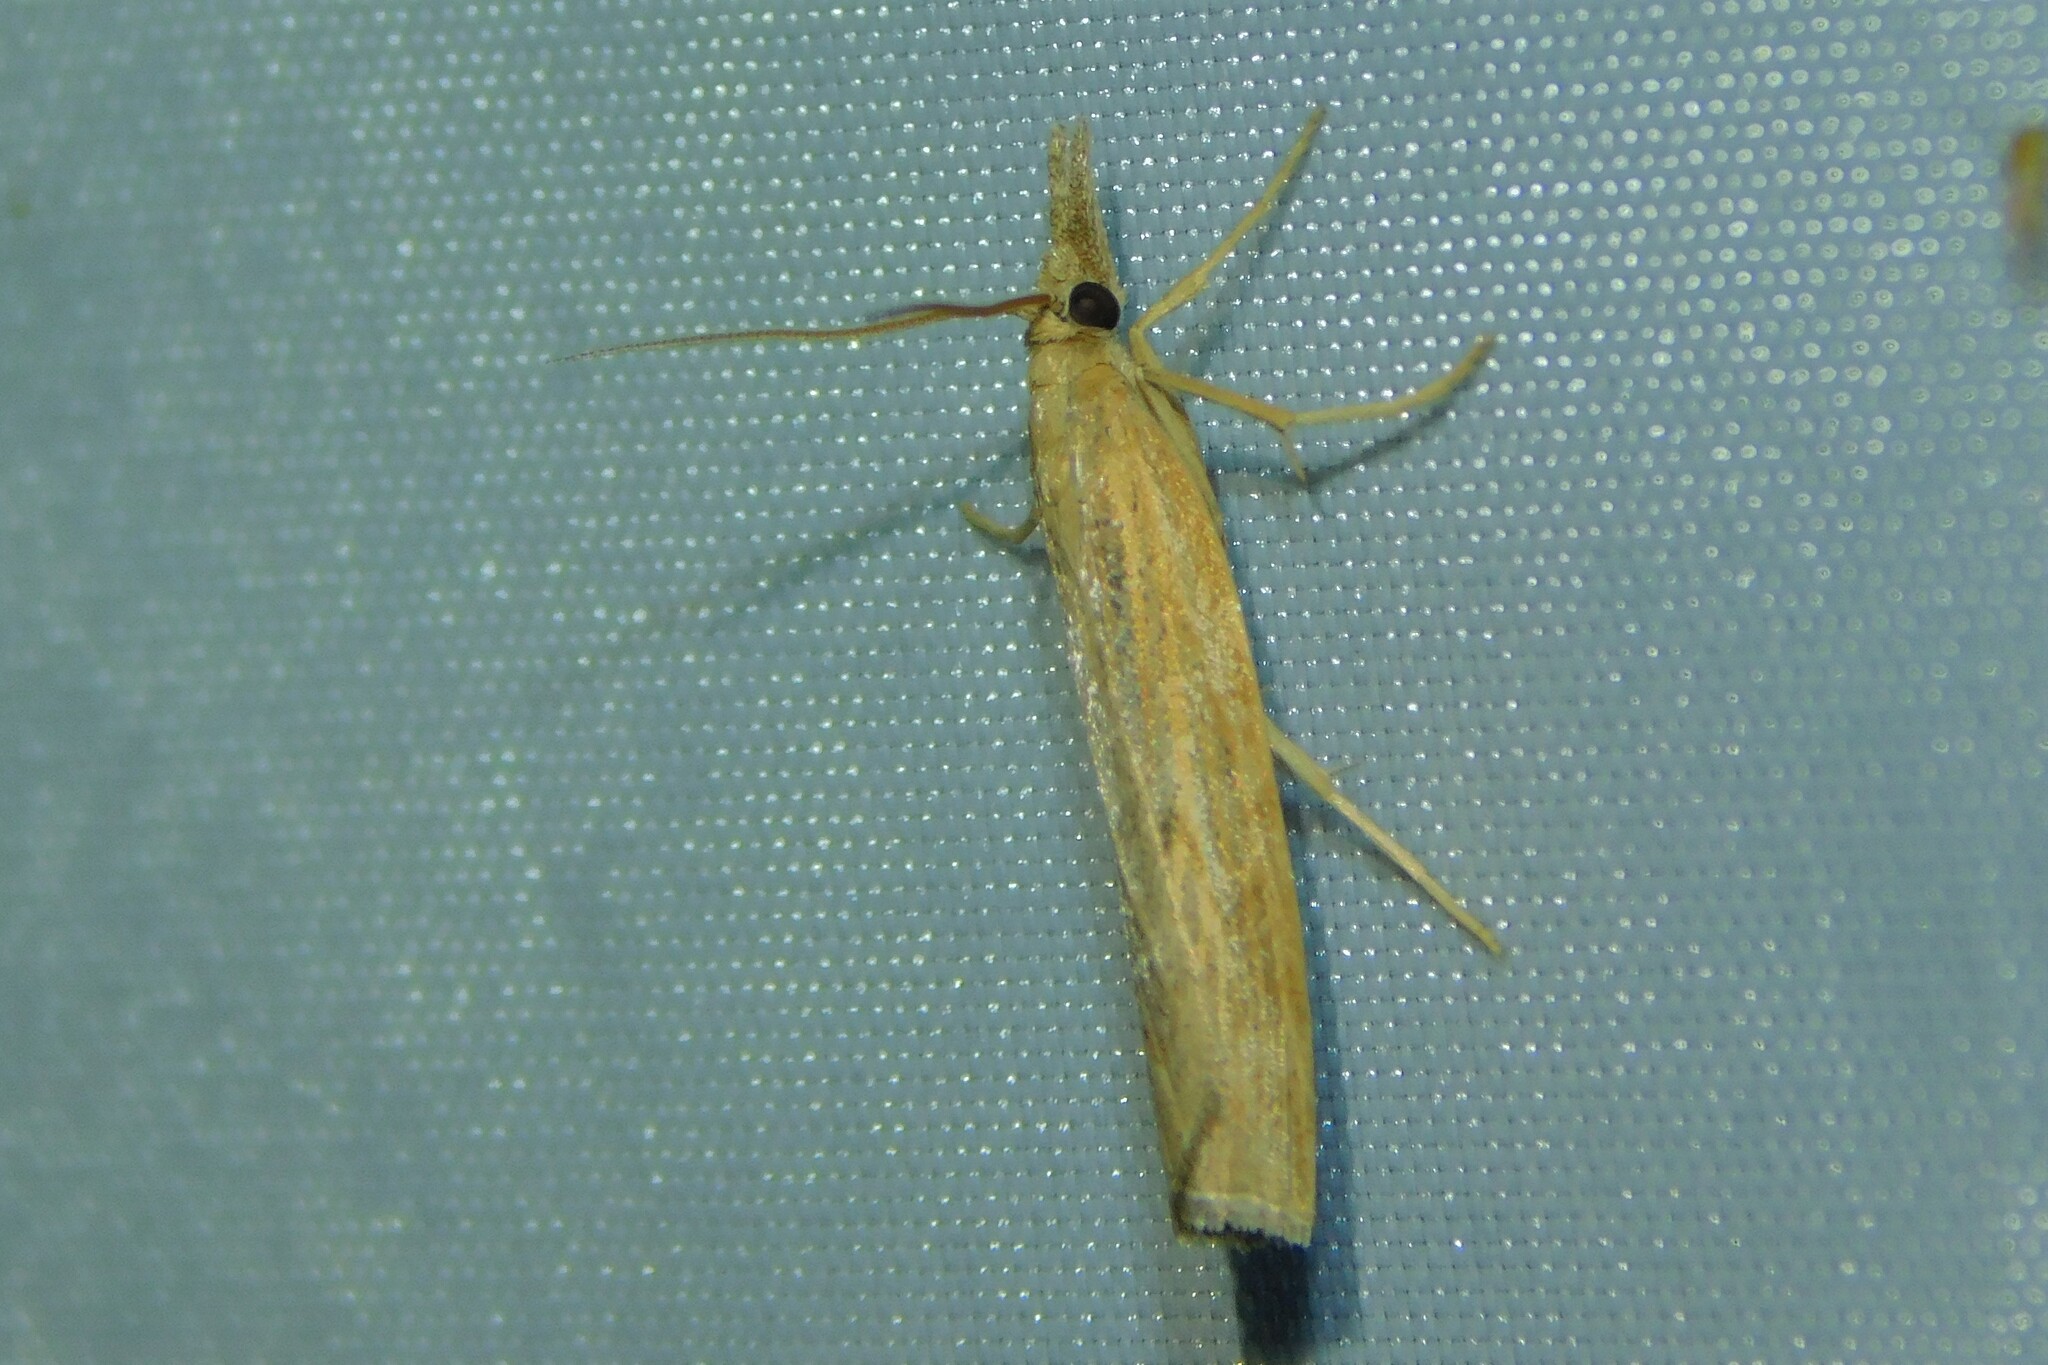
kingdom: Animalia
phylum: Arthropoda
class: Insecta
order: Lepidoptera
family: Crambidae
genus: Pediasia
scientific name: Pediasia contaminella
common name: Waste grass-veneer
